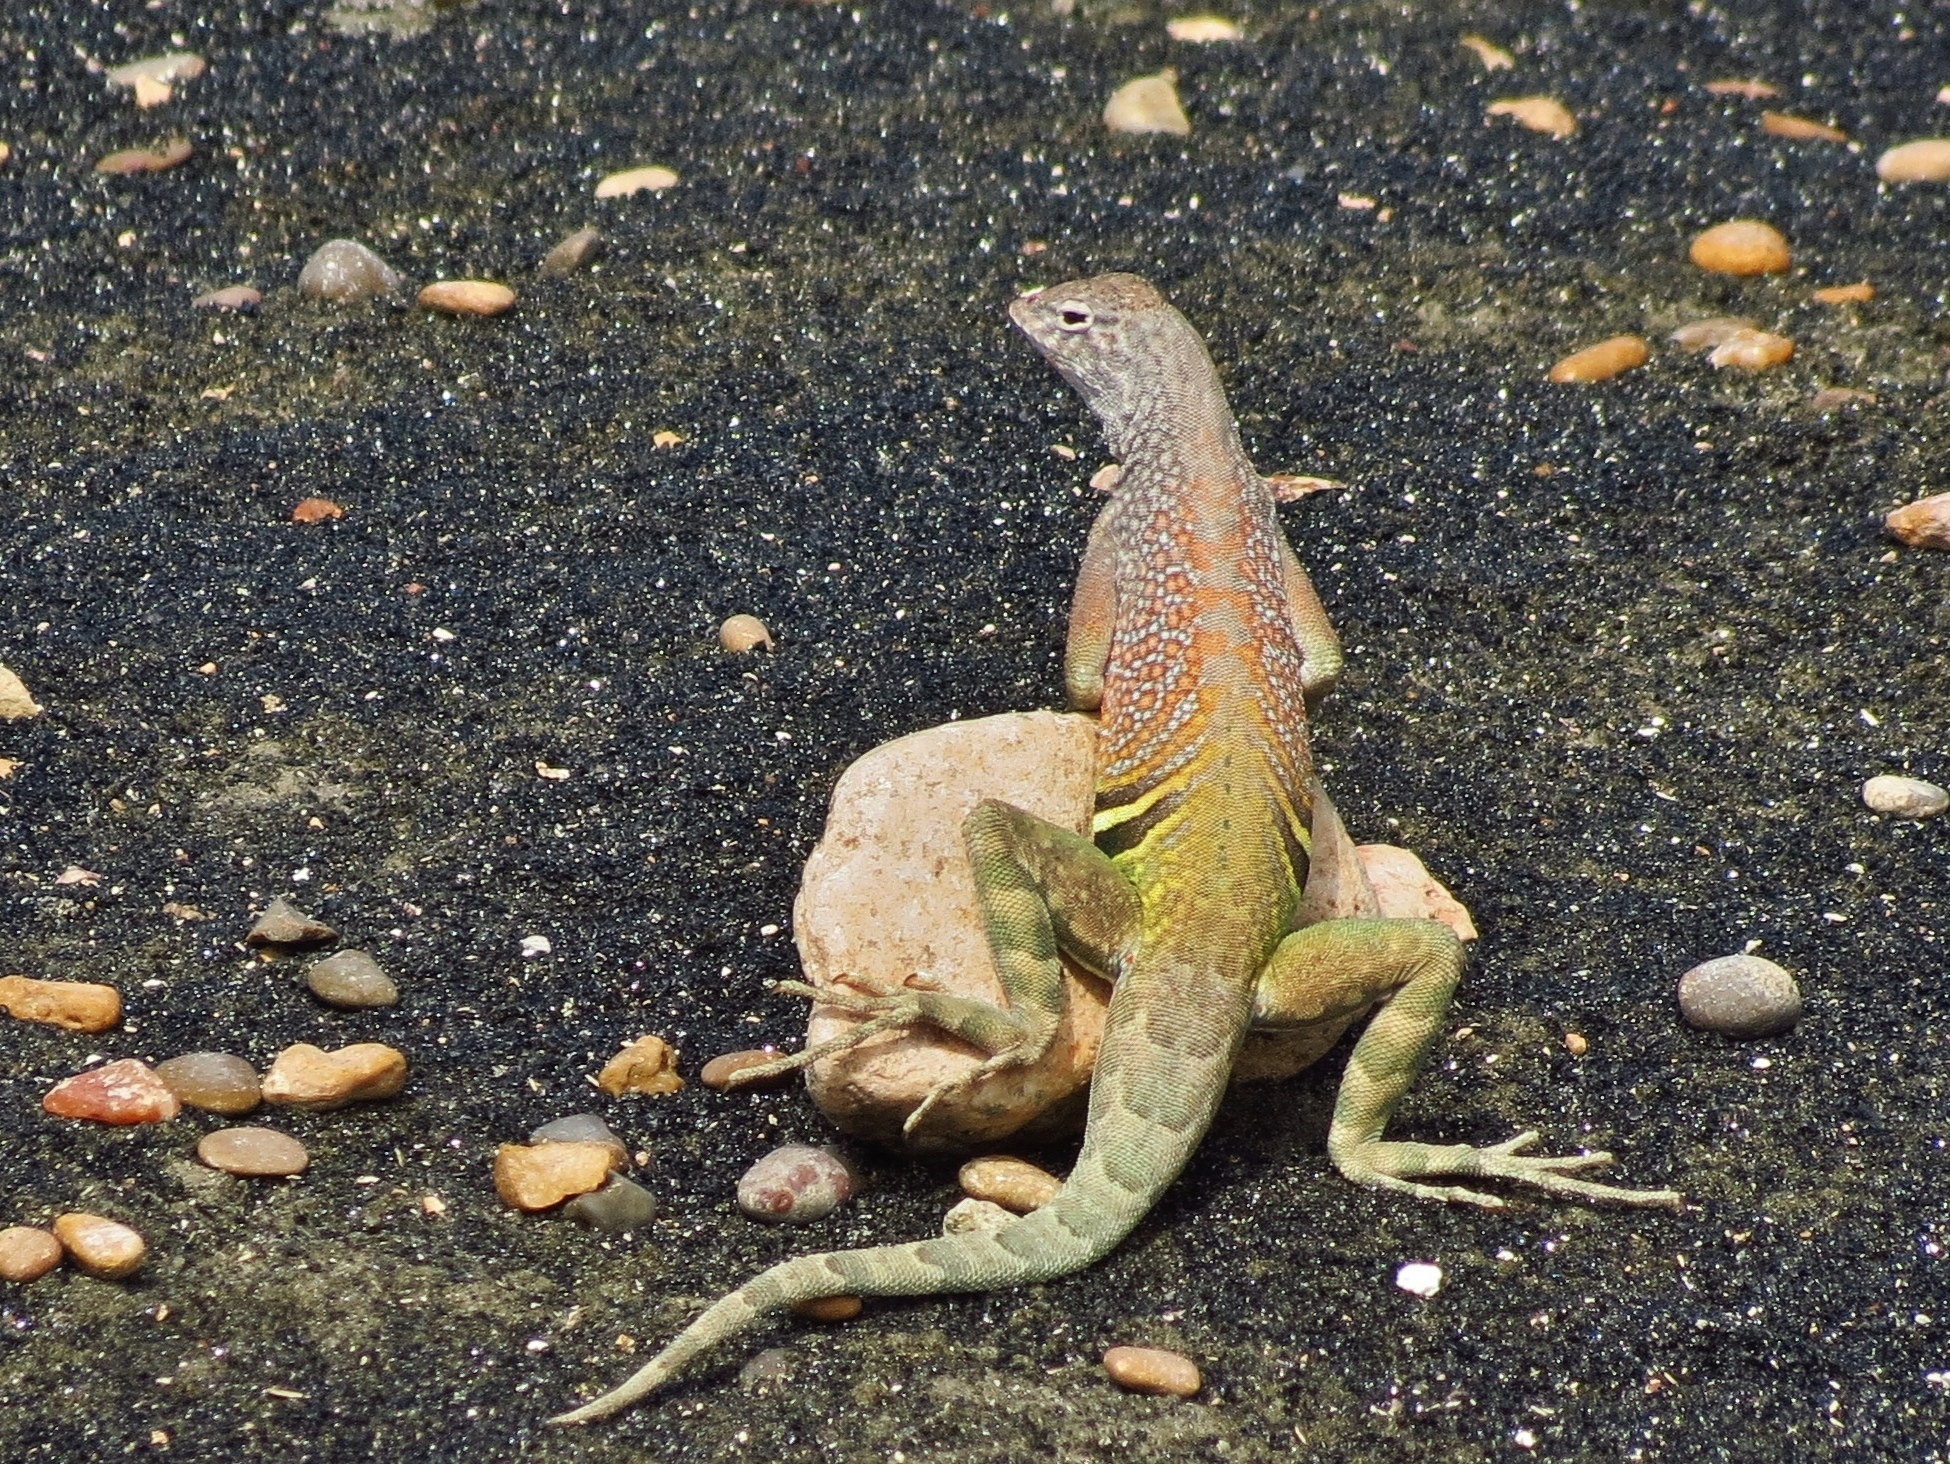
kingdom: Animalia
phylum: Chordata
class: Squamata
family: Phrynosomatidae
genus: Cophosaurus
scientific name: Cophosaurus texanus
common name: Greater earless lizard
